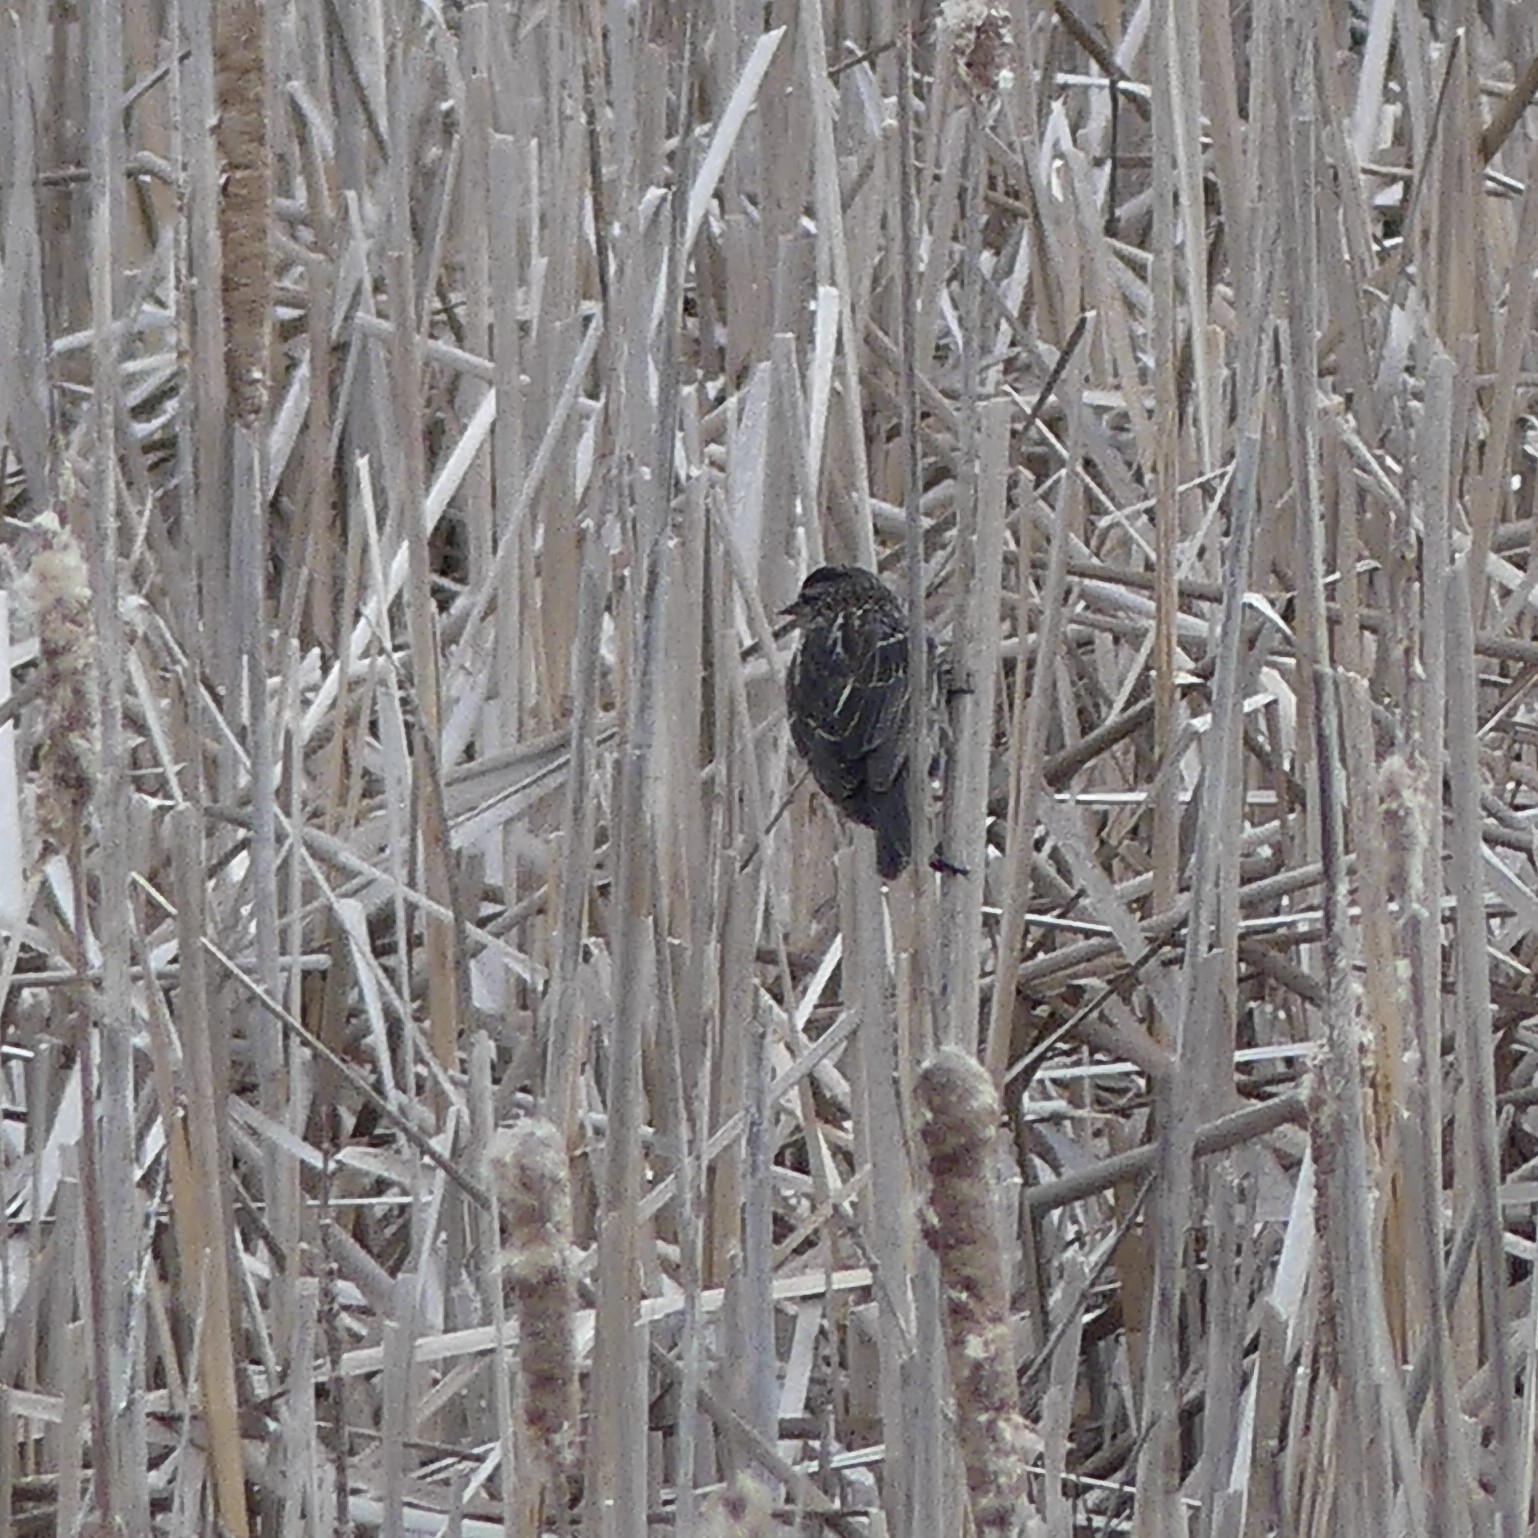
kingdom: Animalia
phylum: Chordata
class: Aves
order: Passeriformes
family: Icteridae
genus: Agelaius
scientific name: Agelaius phoeniceus
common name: Red-winged blackbird
